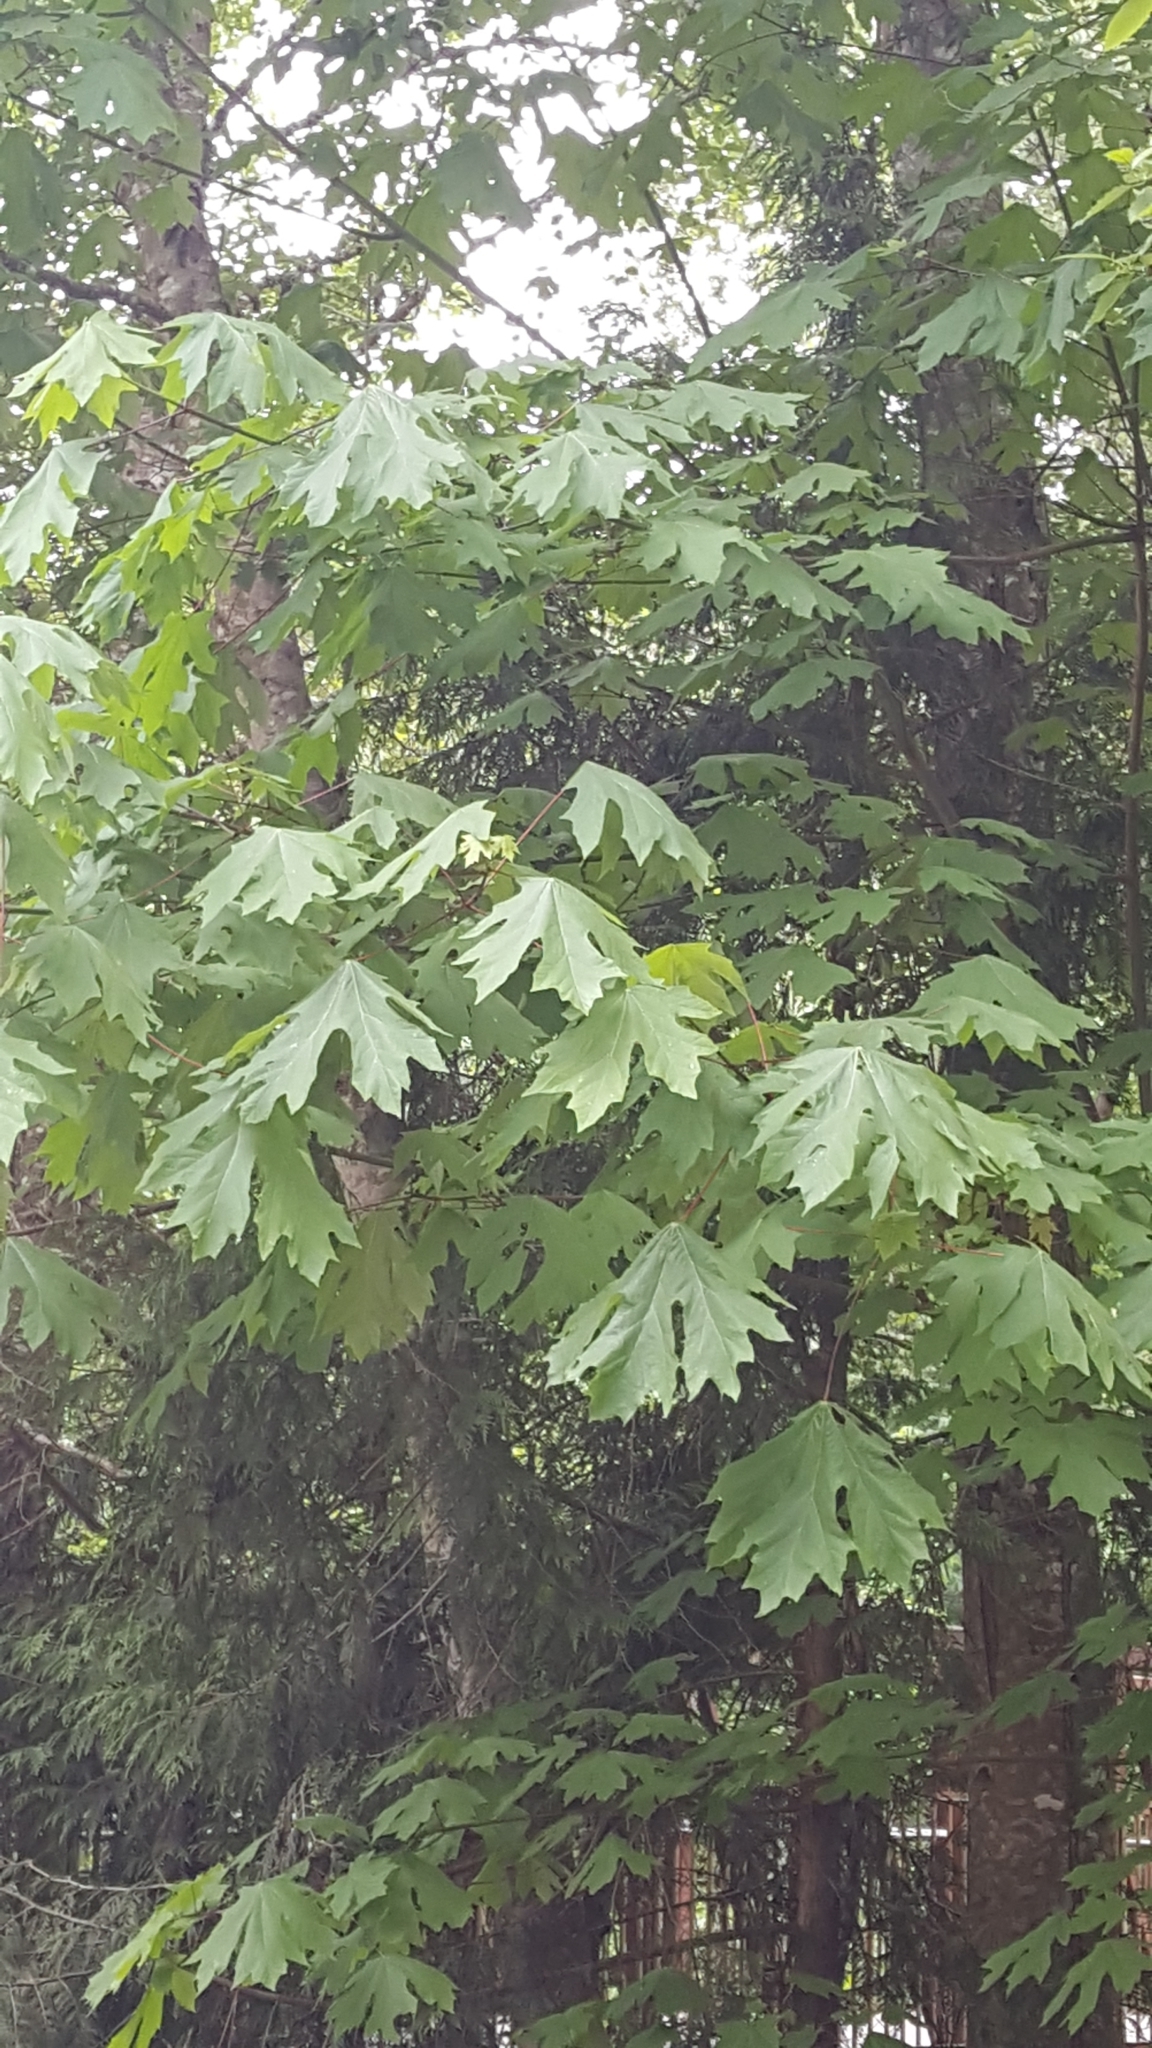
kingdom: Plantae
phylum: Tracheophyta
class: Magnoliopsida
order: Sapindales
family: Sapindaceae
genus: Acer
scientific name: Acer macrophyllum
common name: Oregon maple
